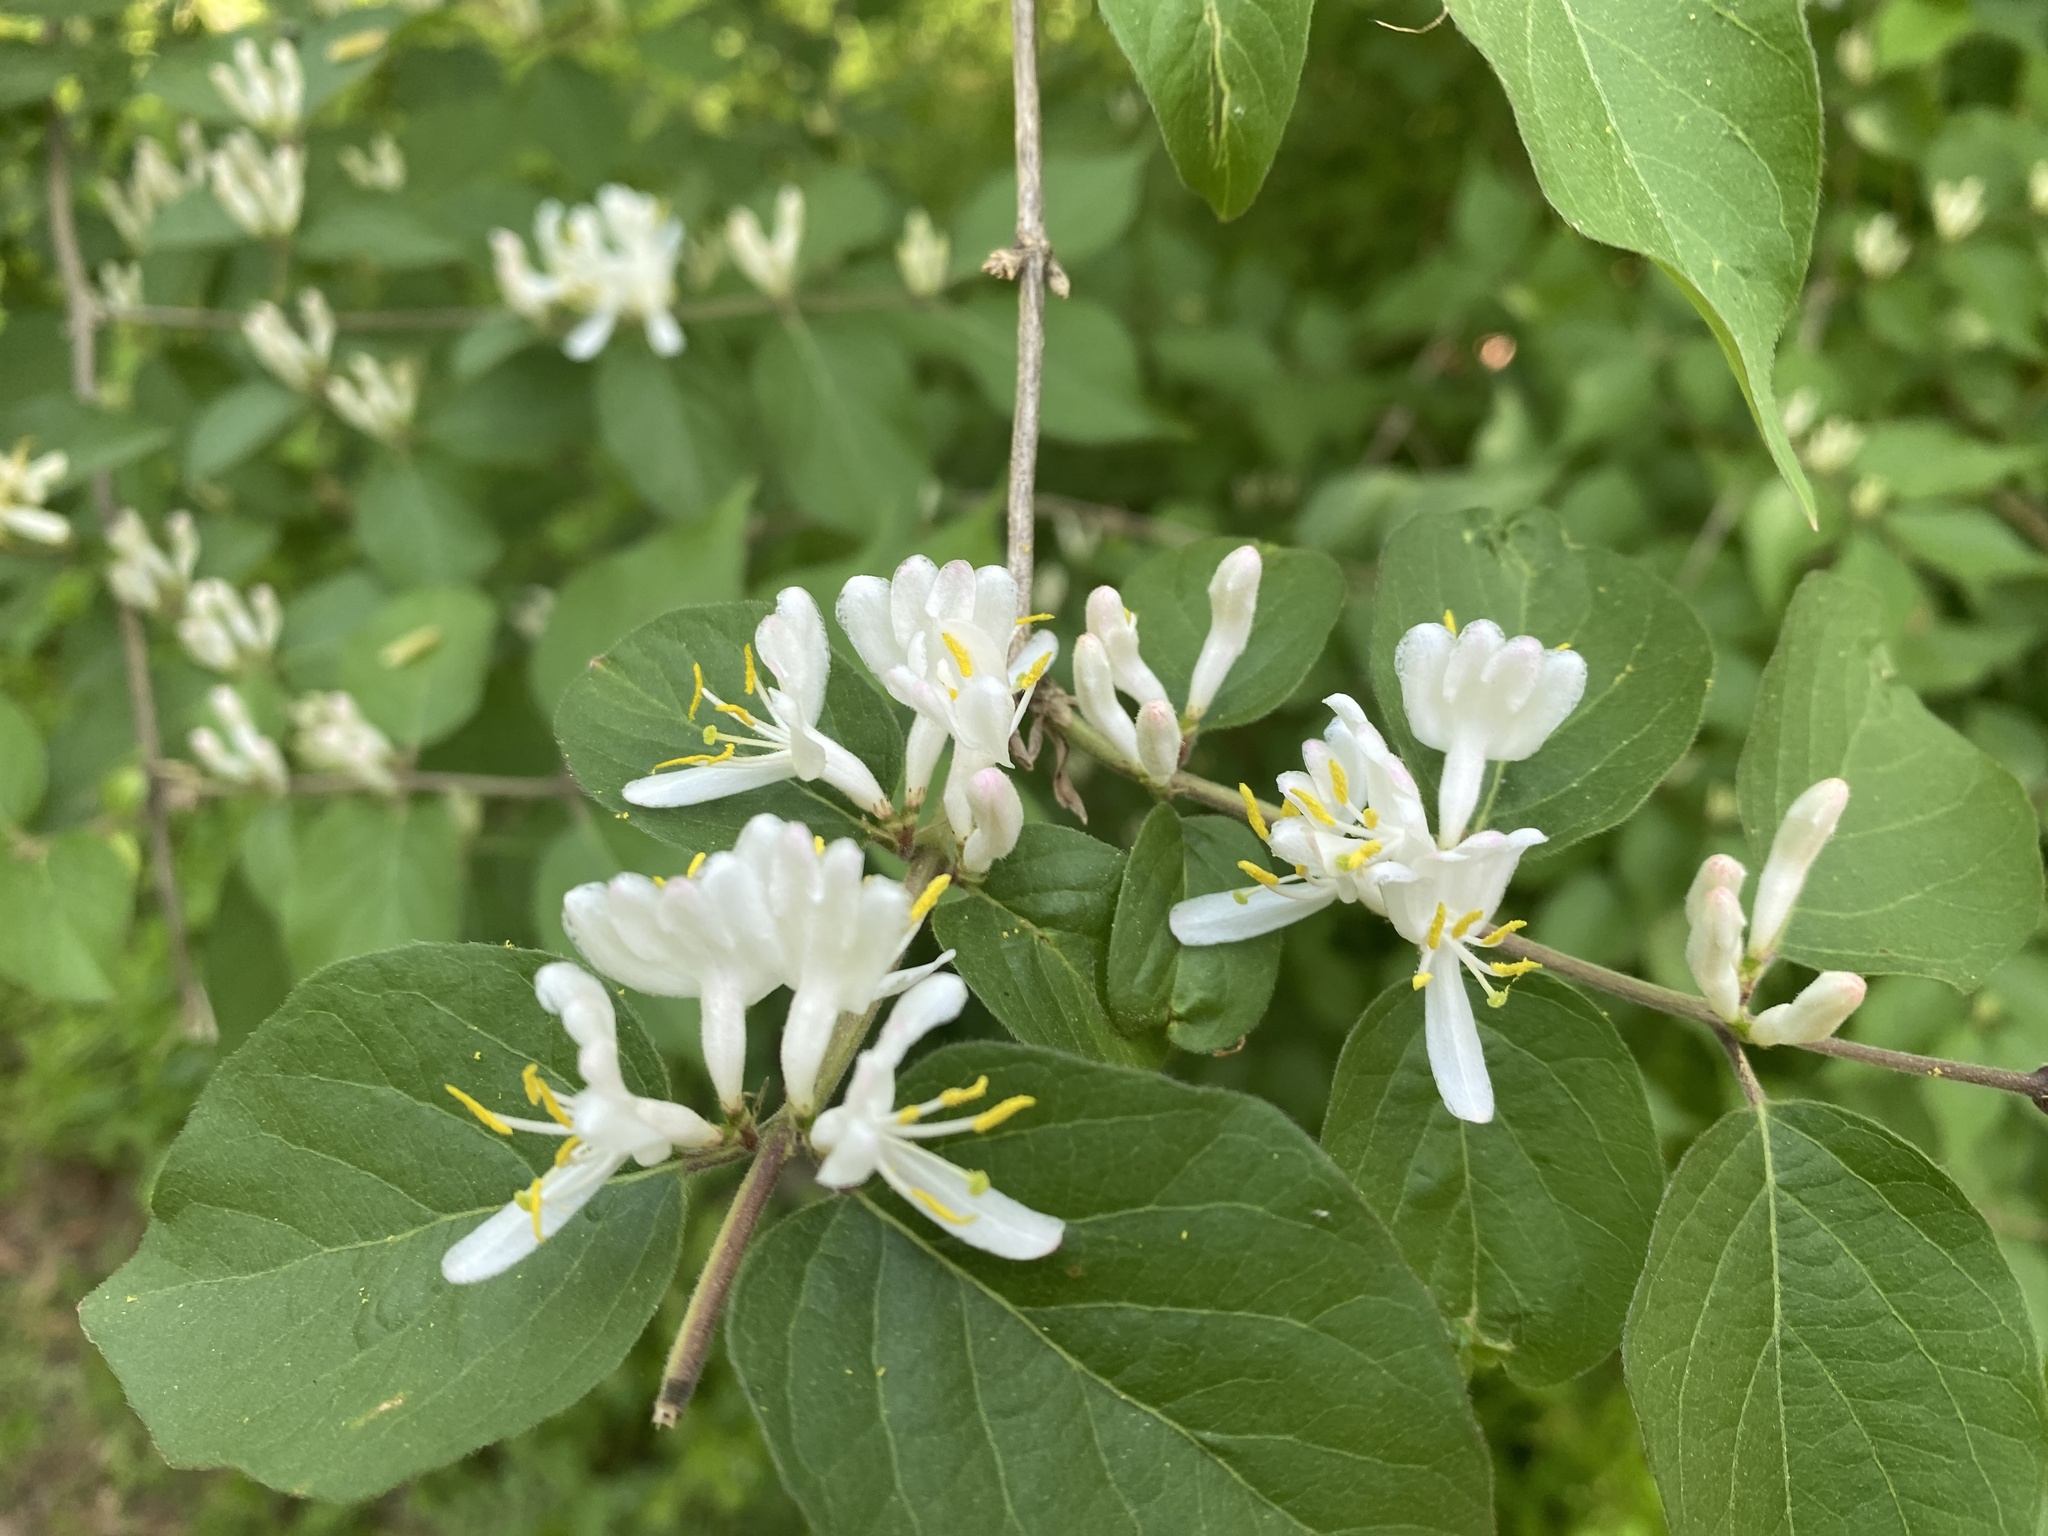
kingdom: Plantae
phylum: Tracheophyta
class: Magnoliopsida
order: Dipsacales
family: Caprifoliaceae
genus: Lonicera
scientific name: Lonicera maackii
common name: Amur honeysuckle
